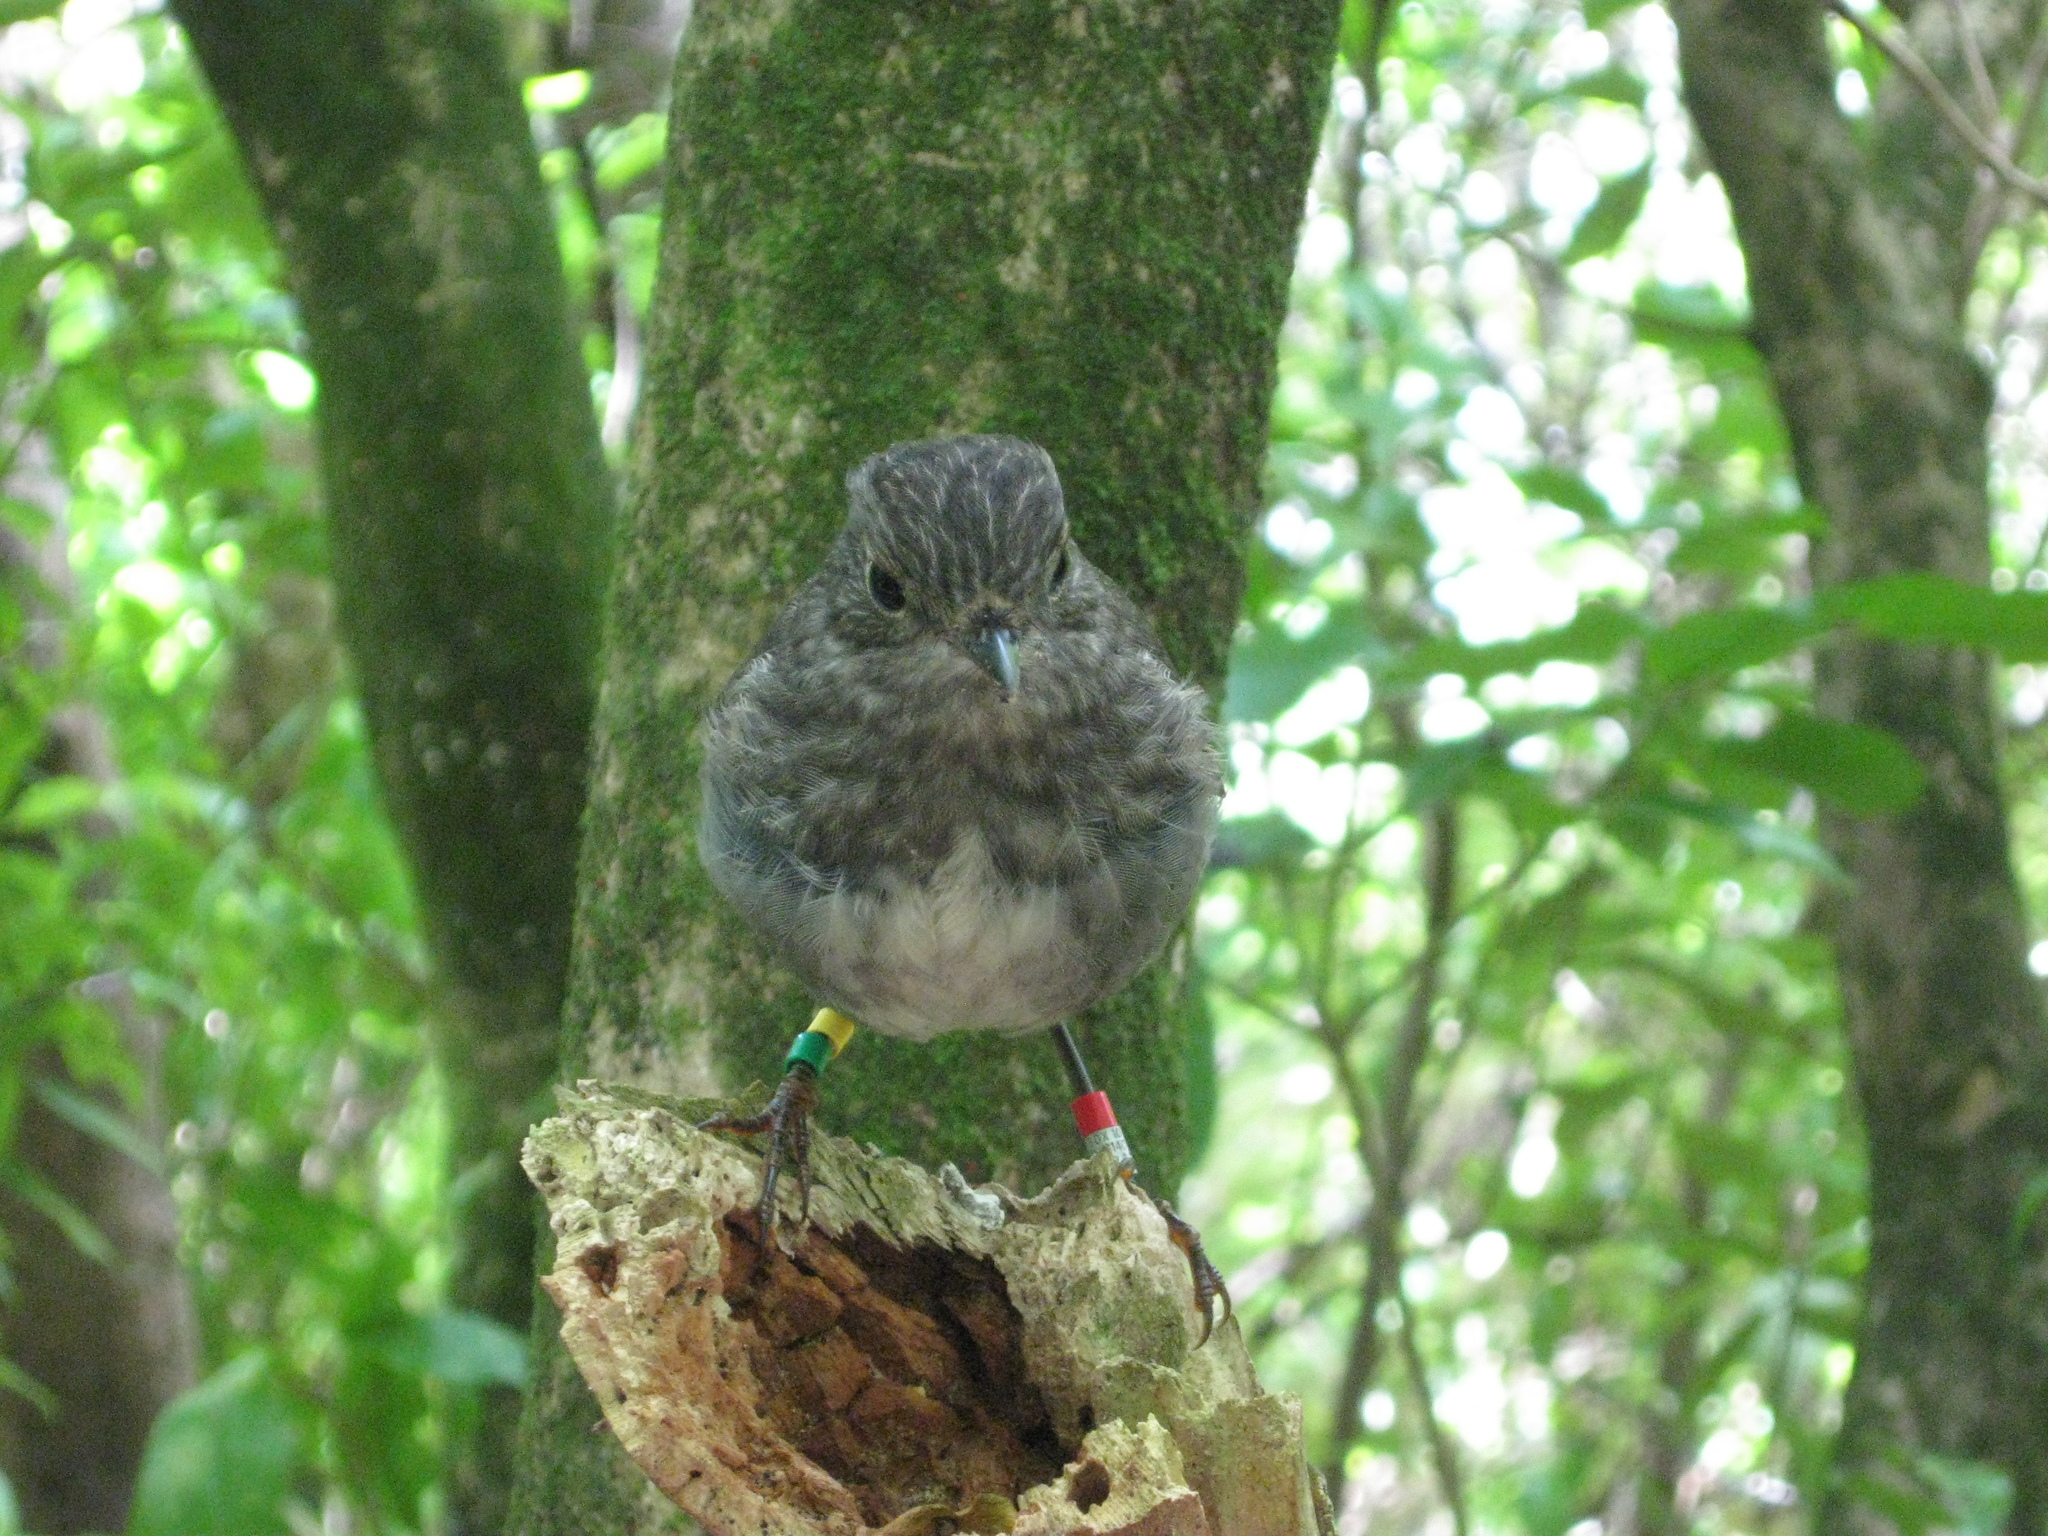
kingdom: Animalia
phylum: Chordata
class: Aves
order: Passeriformes
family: Petroicidae
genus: Petroica
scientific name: Petroica australis
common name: New zealand robin
